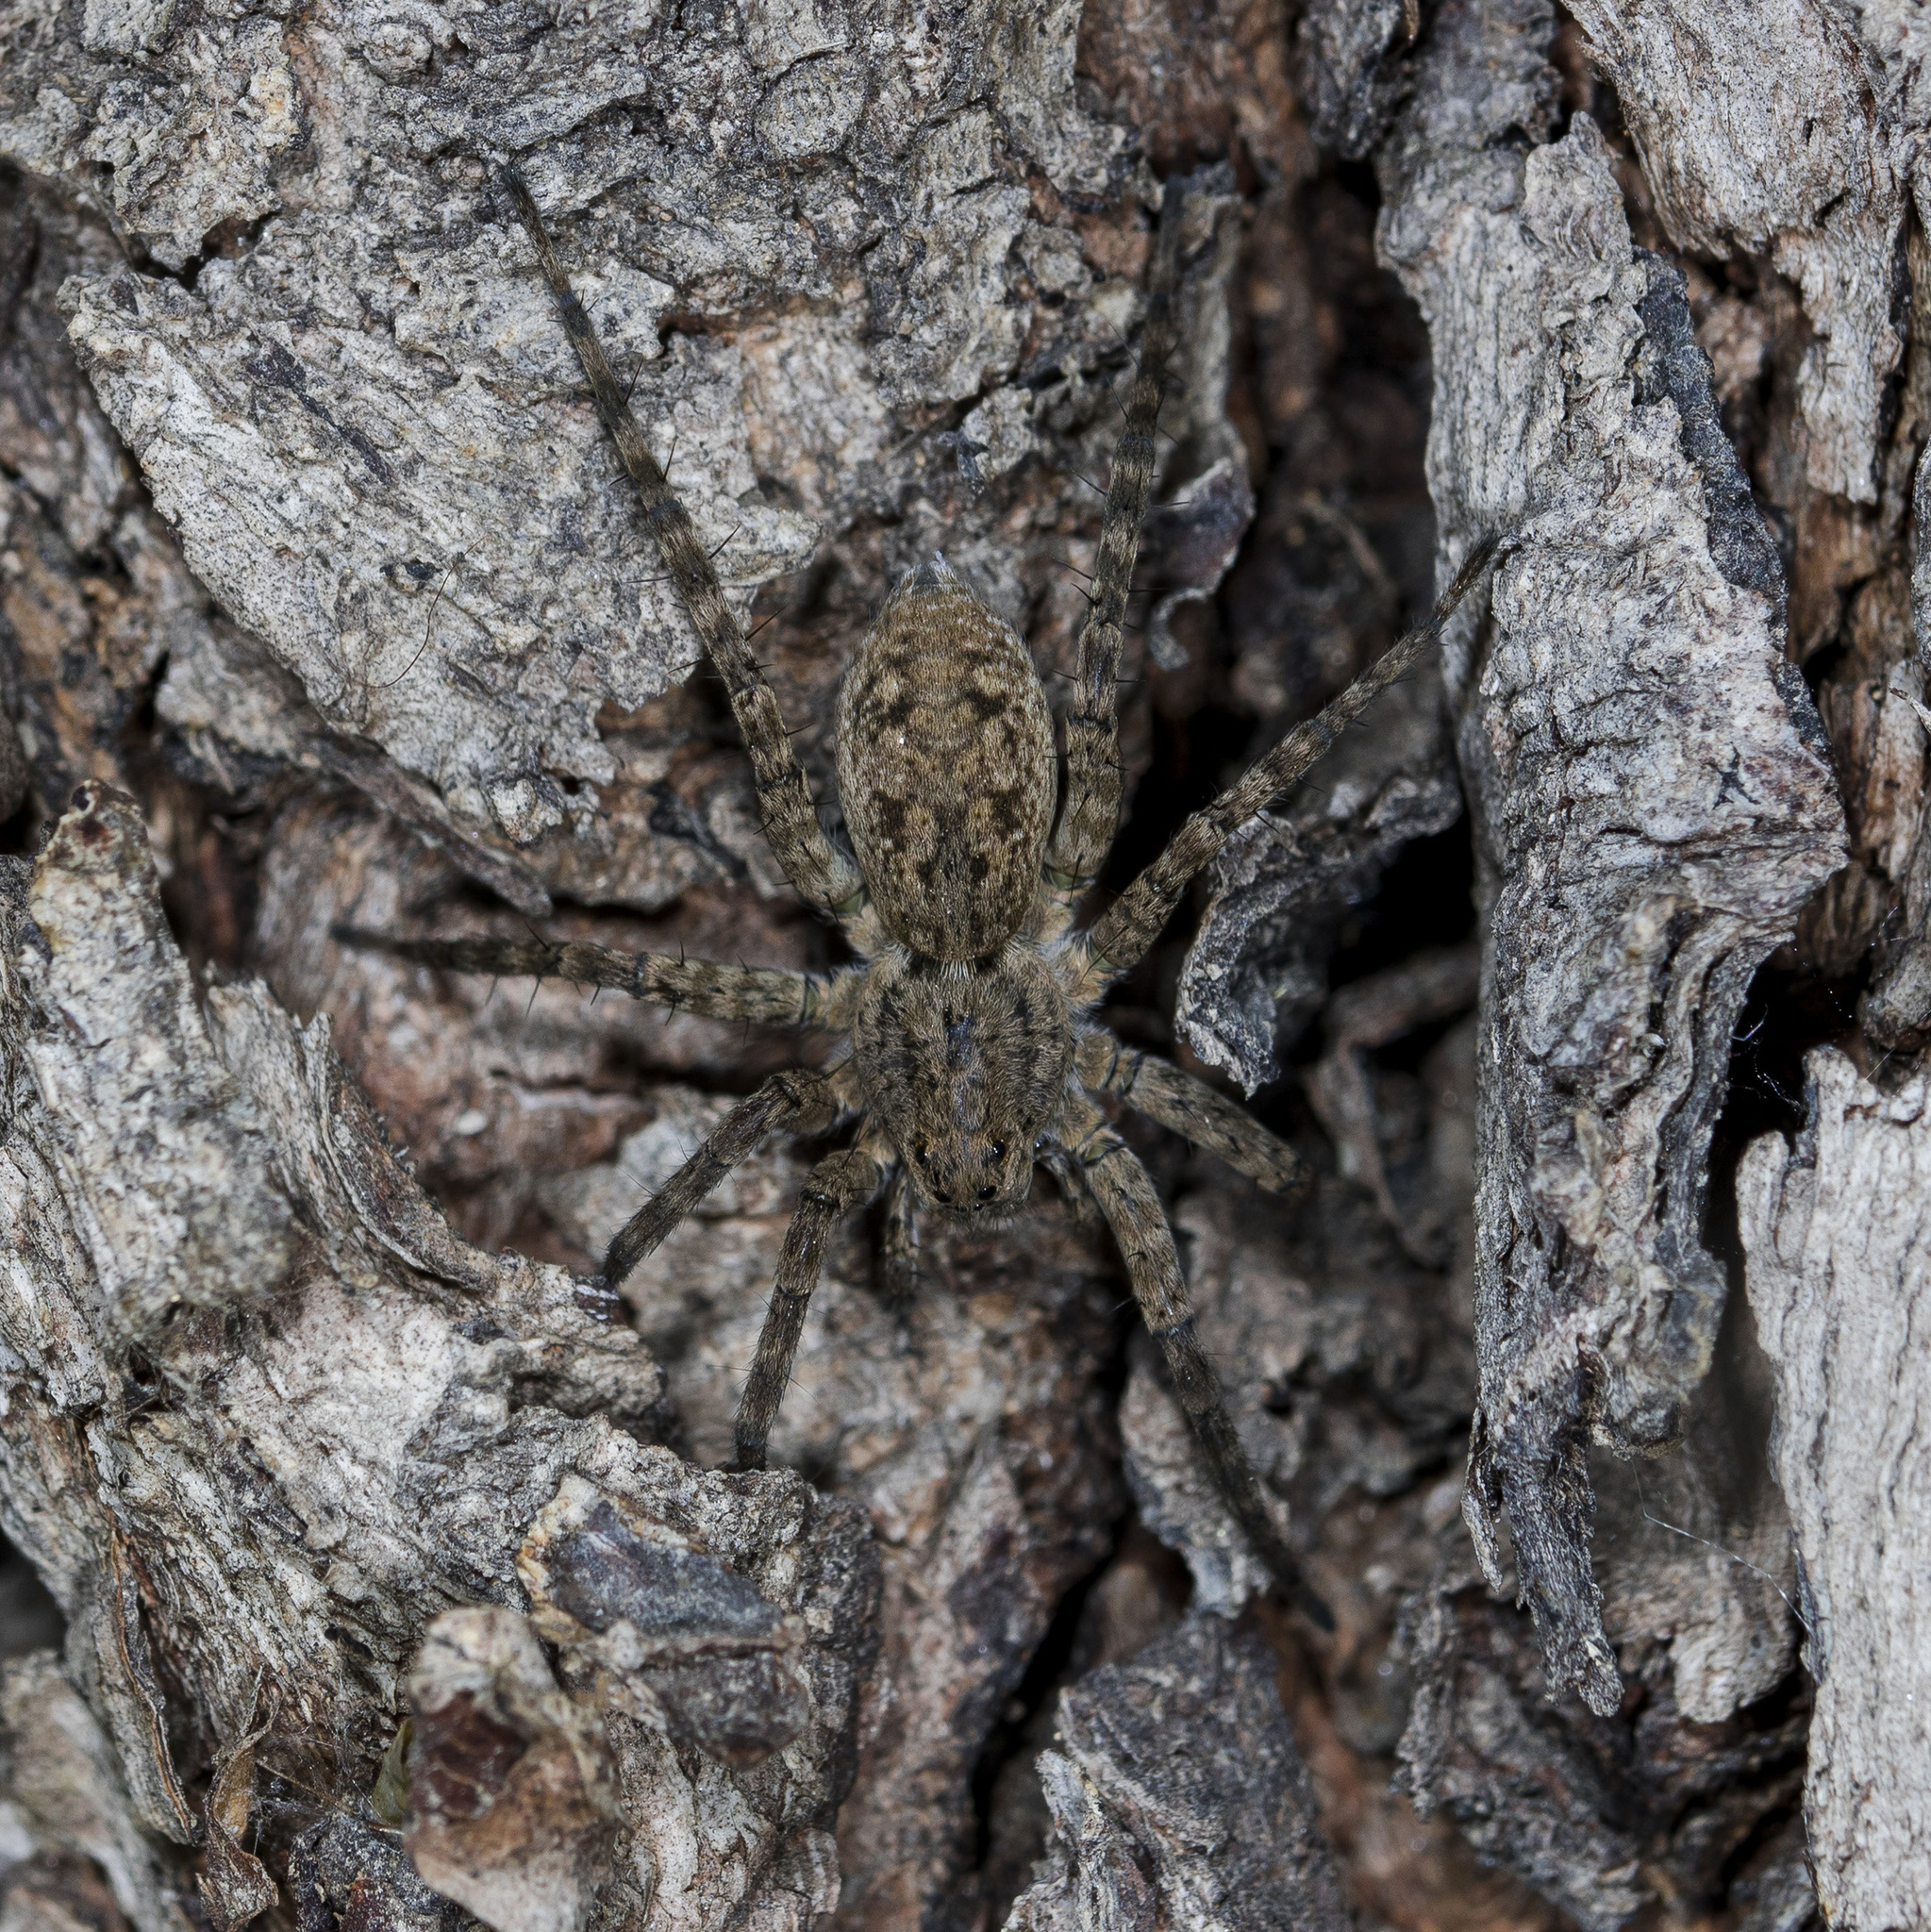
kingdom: Animalia
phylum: Arthropoda
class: Arachnida
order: Araneae
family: Lycosidae
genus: Pardosa
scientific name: Pardosa nebulosa
